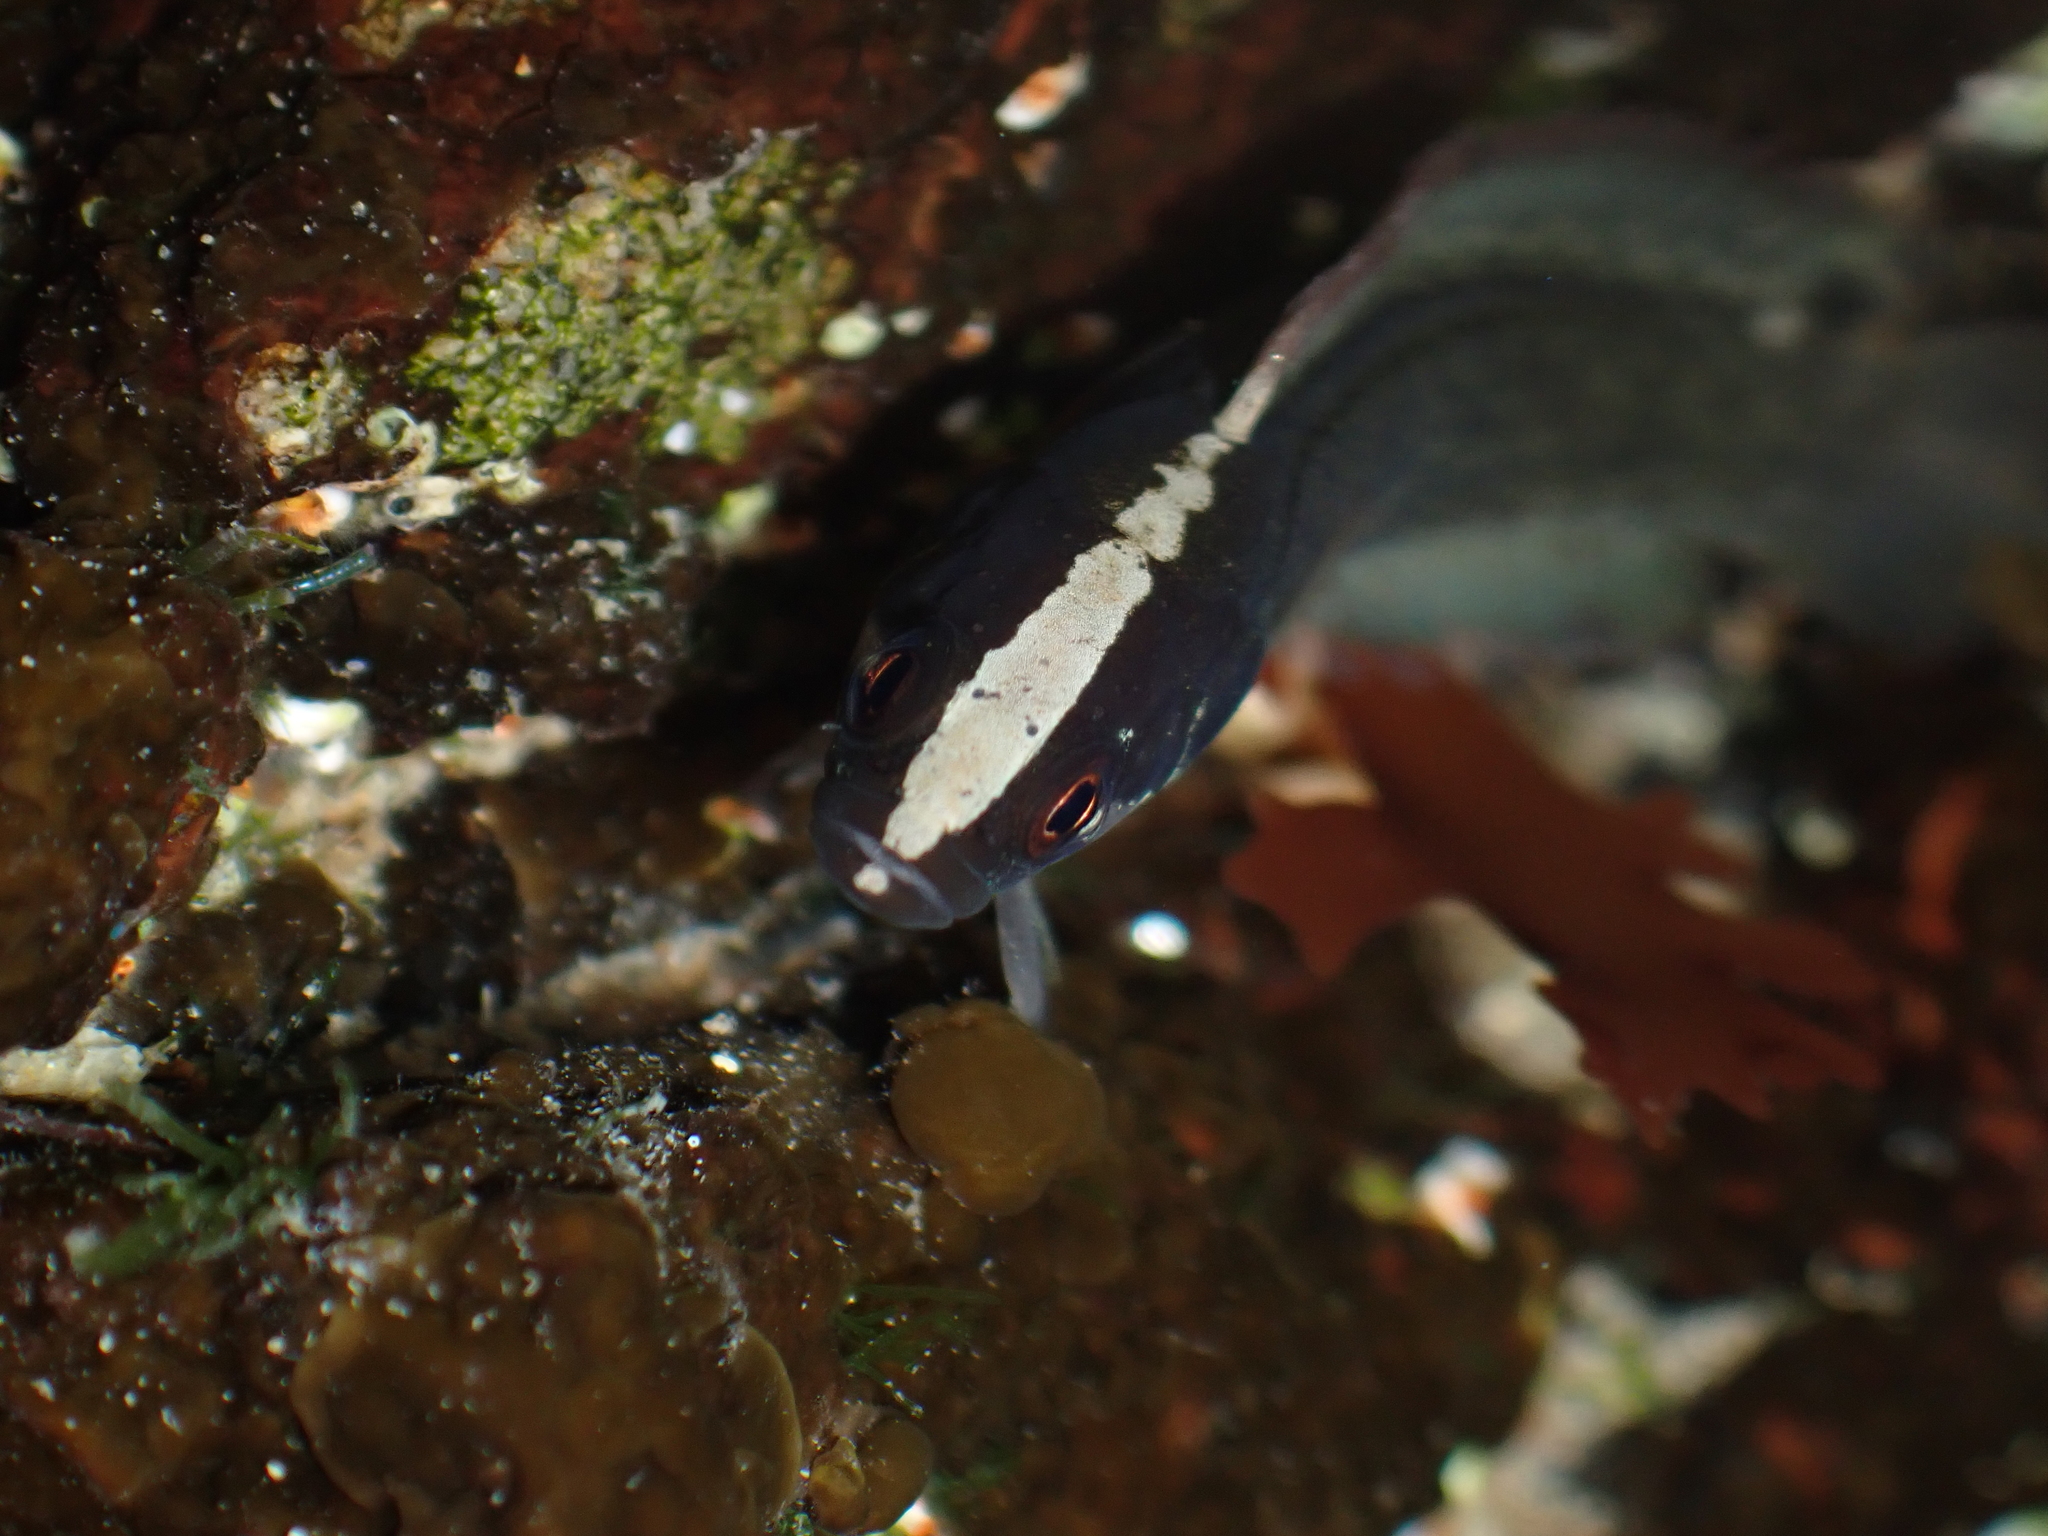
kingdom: Animalia
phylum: Chordata
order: Perciformes
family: Plesiopidae
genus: Acanthoclinus
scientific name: Acanthoclinus fuscus
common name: Olive rockfish
